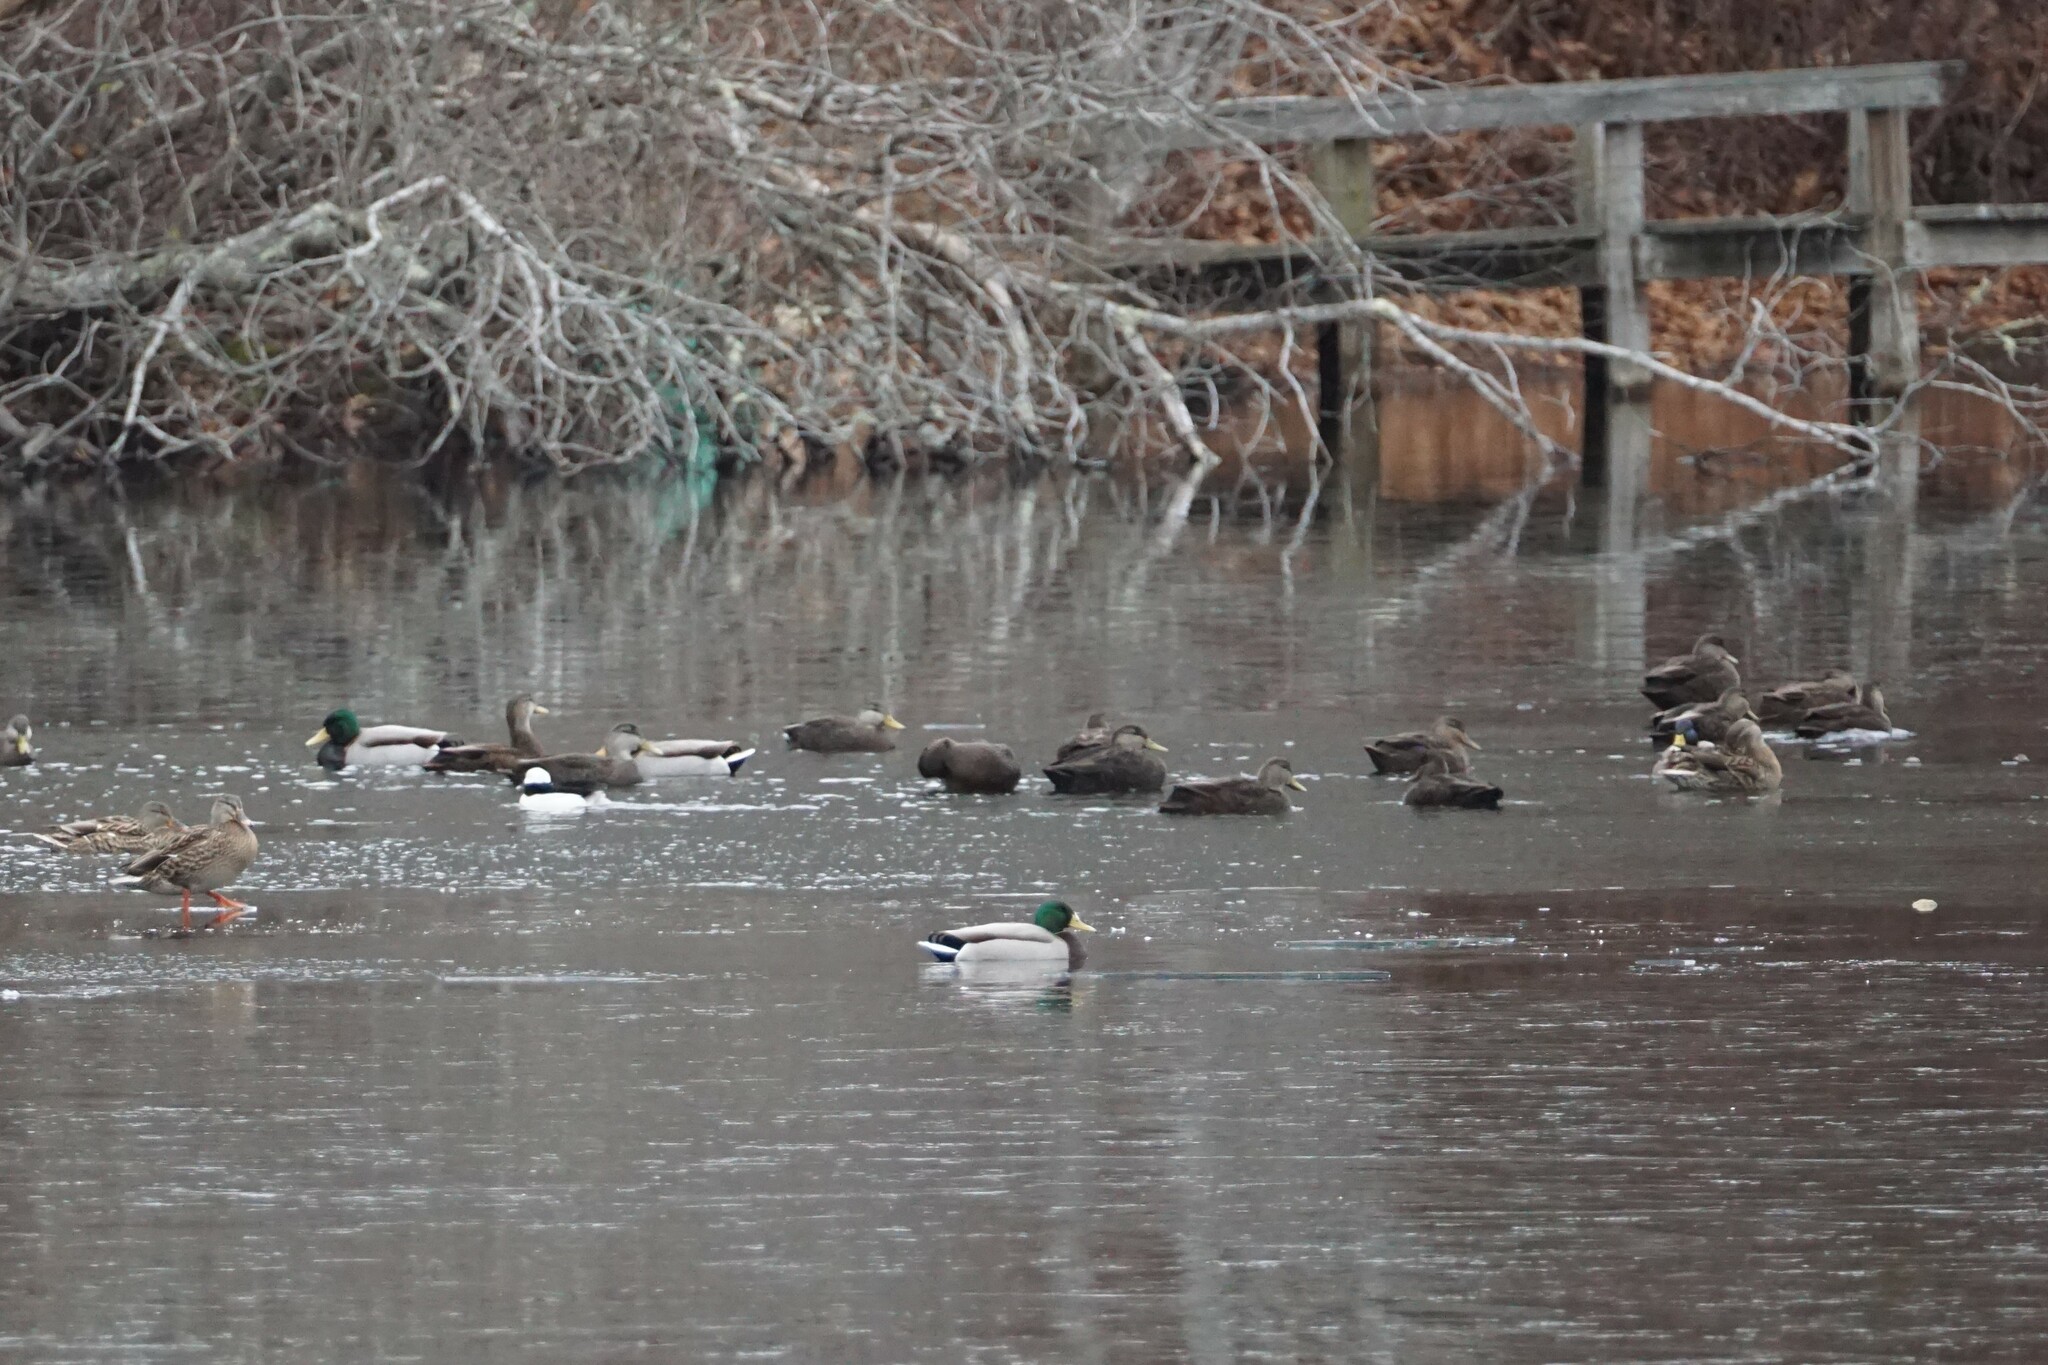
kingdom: Animalia
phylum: Chordata
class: Aves
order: Anseriformes
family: Anatidae
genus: Anas
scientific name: Anas platyrhynchos
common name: Mallard
